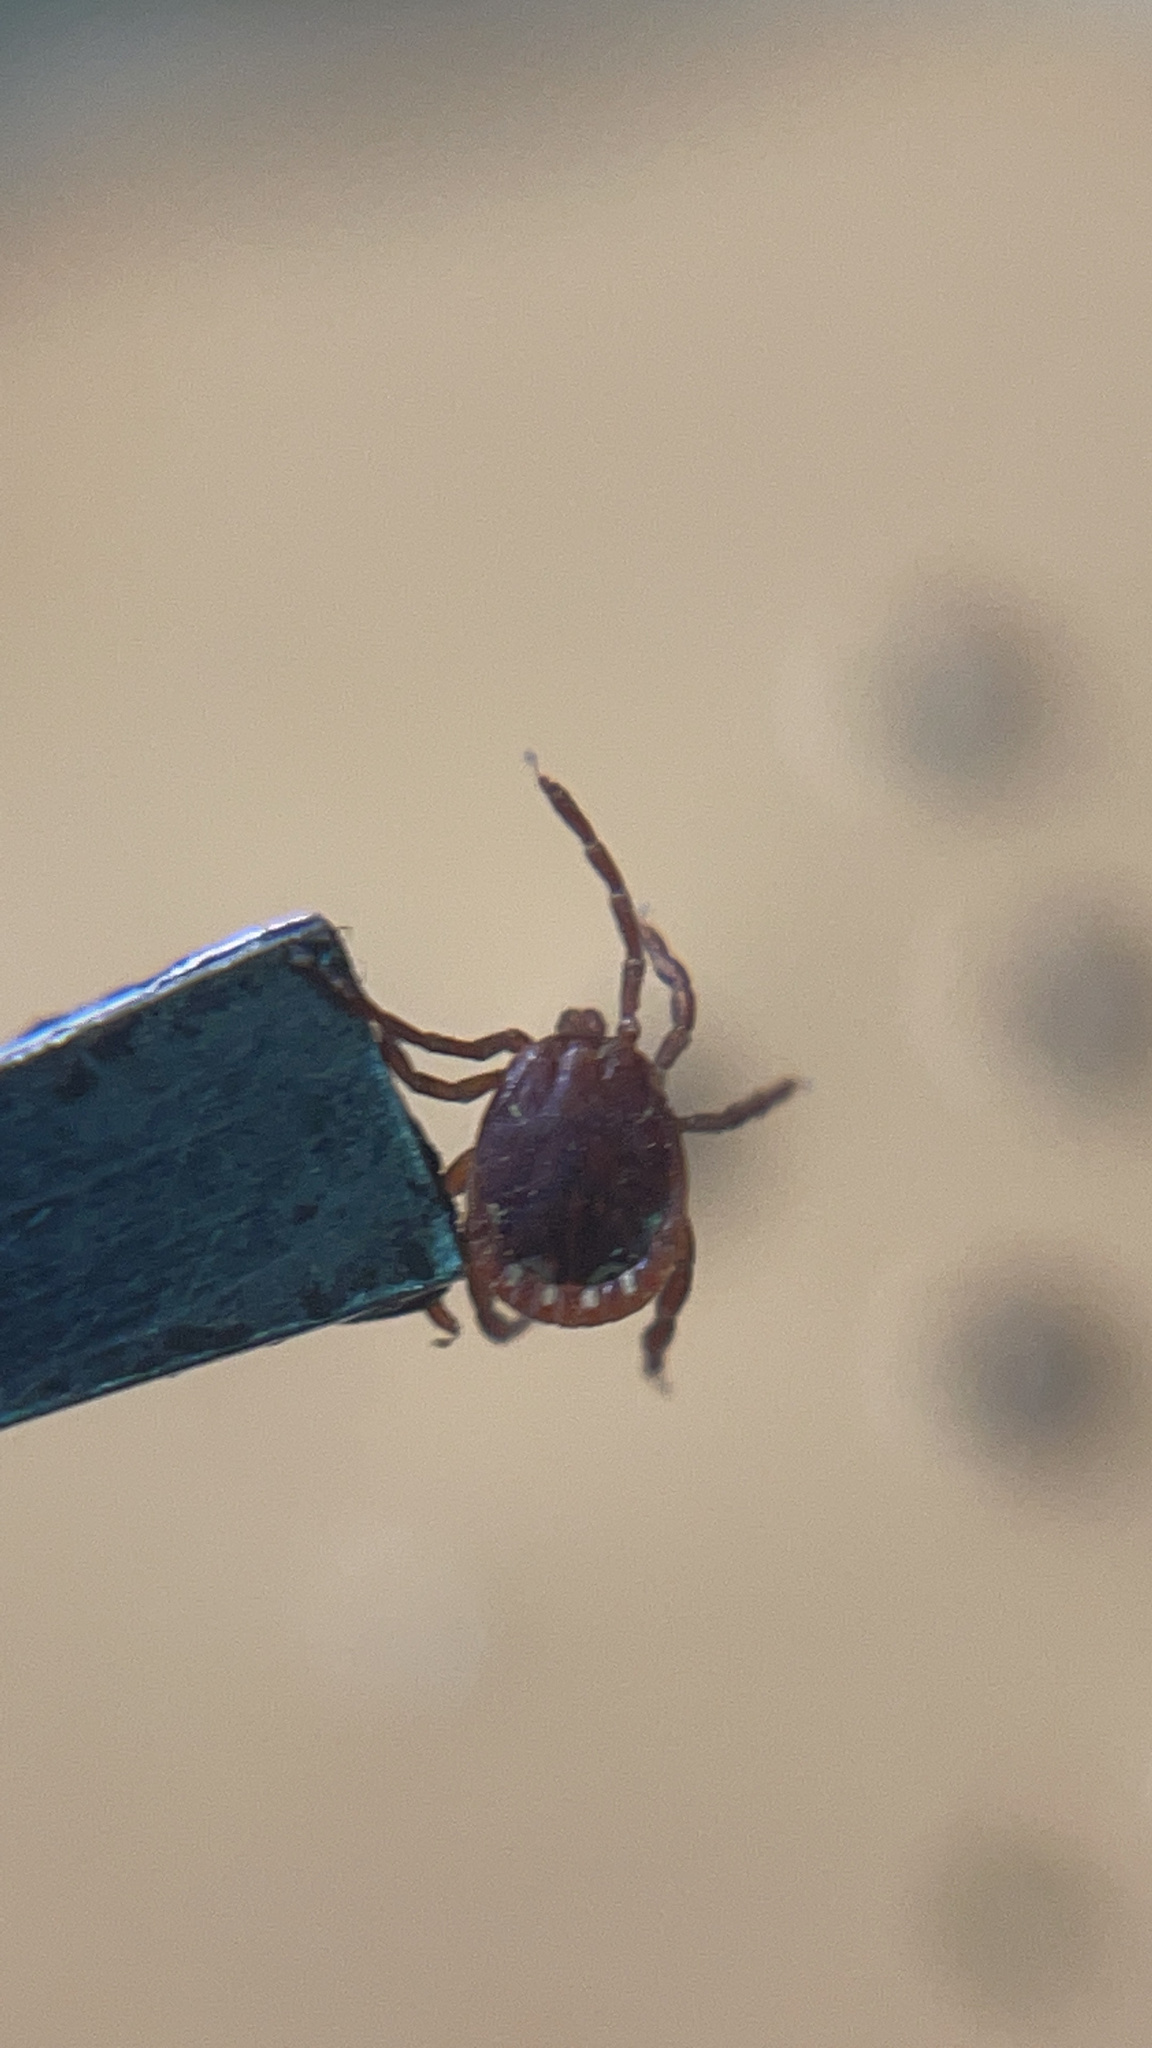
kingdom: Animalia
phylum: Arthropoda
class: Arachnida
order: Ixodida
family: Ixodidae
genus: Amblyomma
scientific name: Amblyomma americanum
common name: Lone star tick
